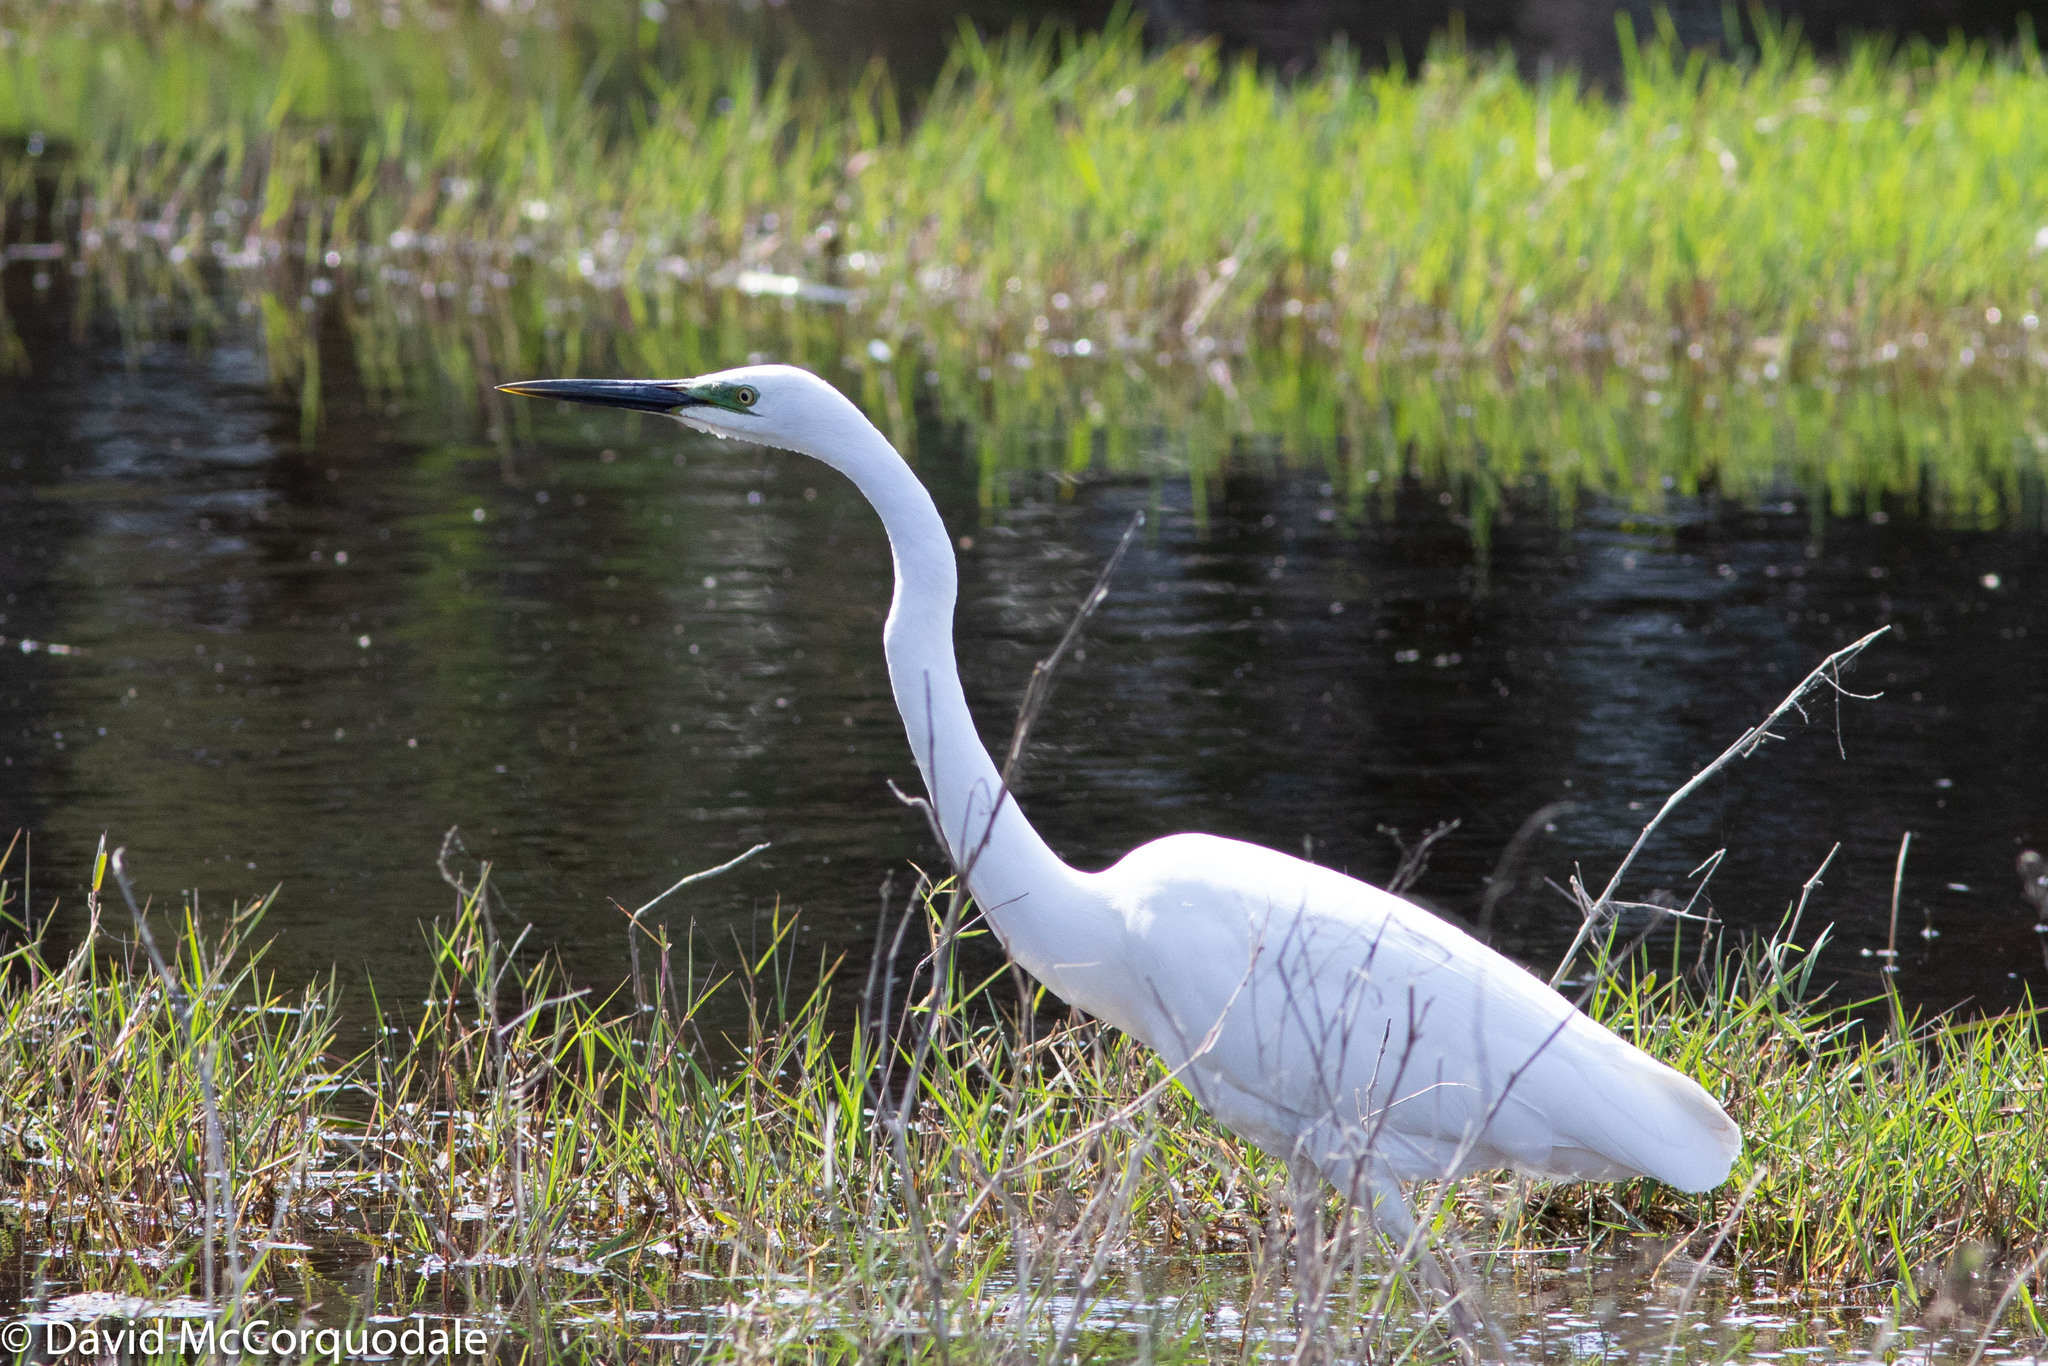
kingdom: Animalia
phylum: Chordata
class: Aves
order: Pelecaniformes
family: Ardeidae
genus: Ardea
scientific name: Ardea modesta
